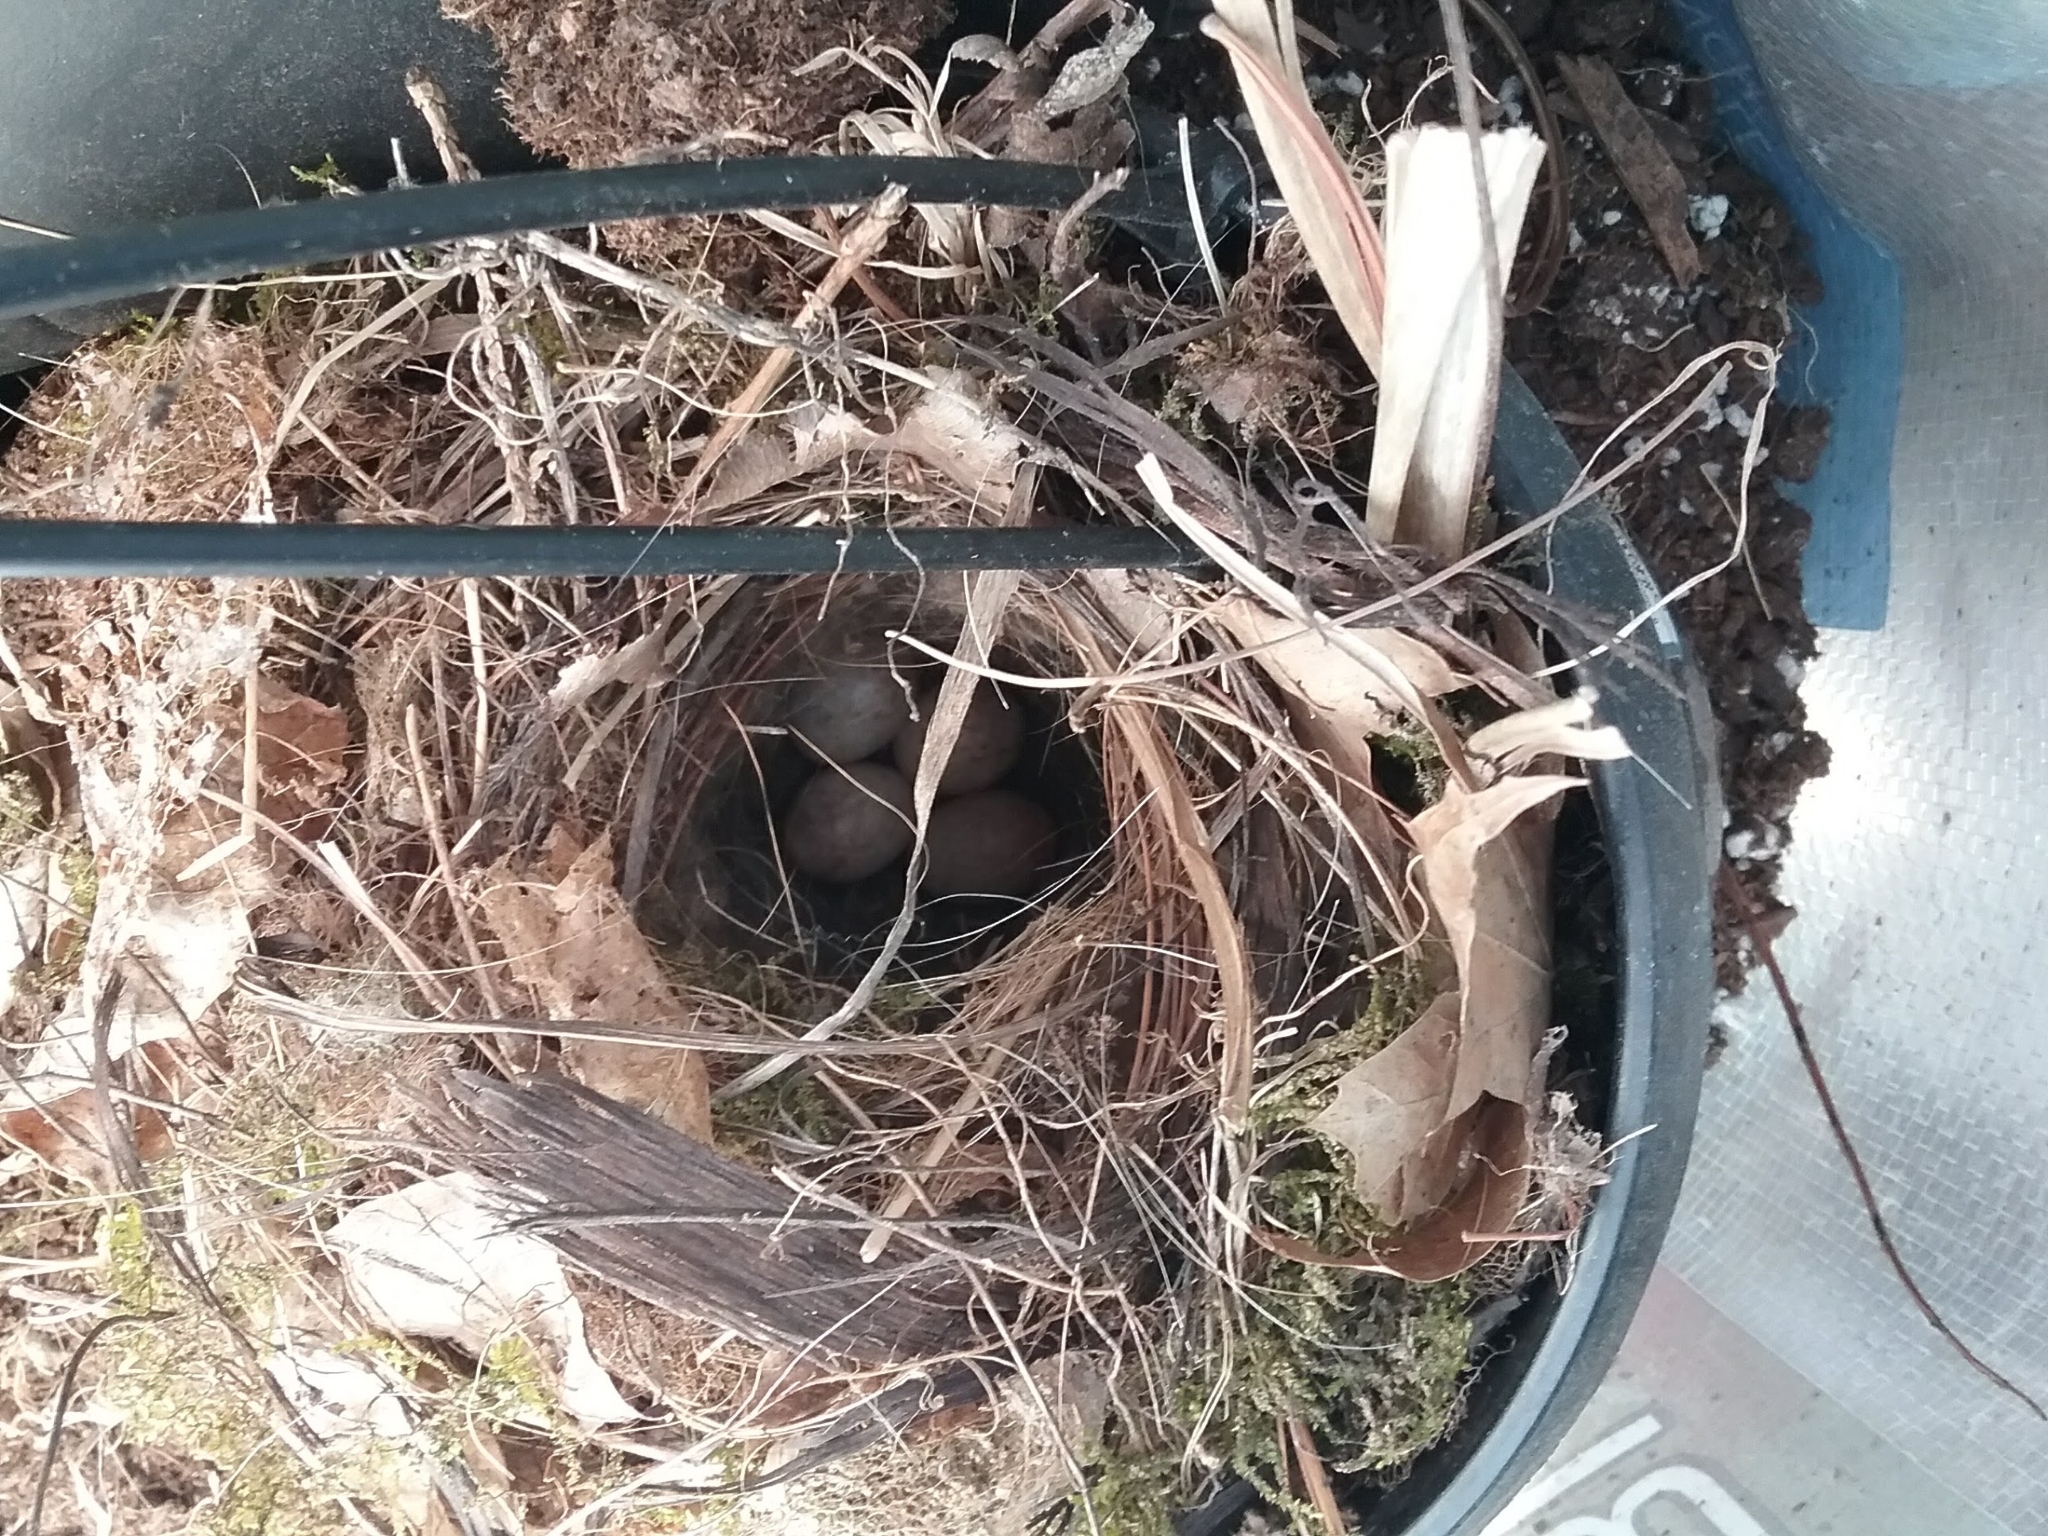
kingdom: Animalia
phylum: Chordata
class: Aves
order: Passeriformes
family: Troglodytidae
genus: Thryothorus
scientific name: Thryothorus ludovicianus
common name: Carolina wren
